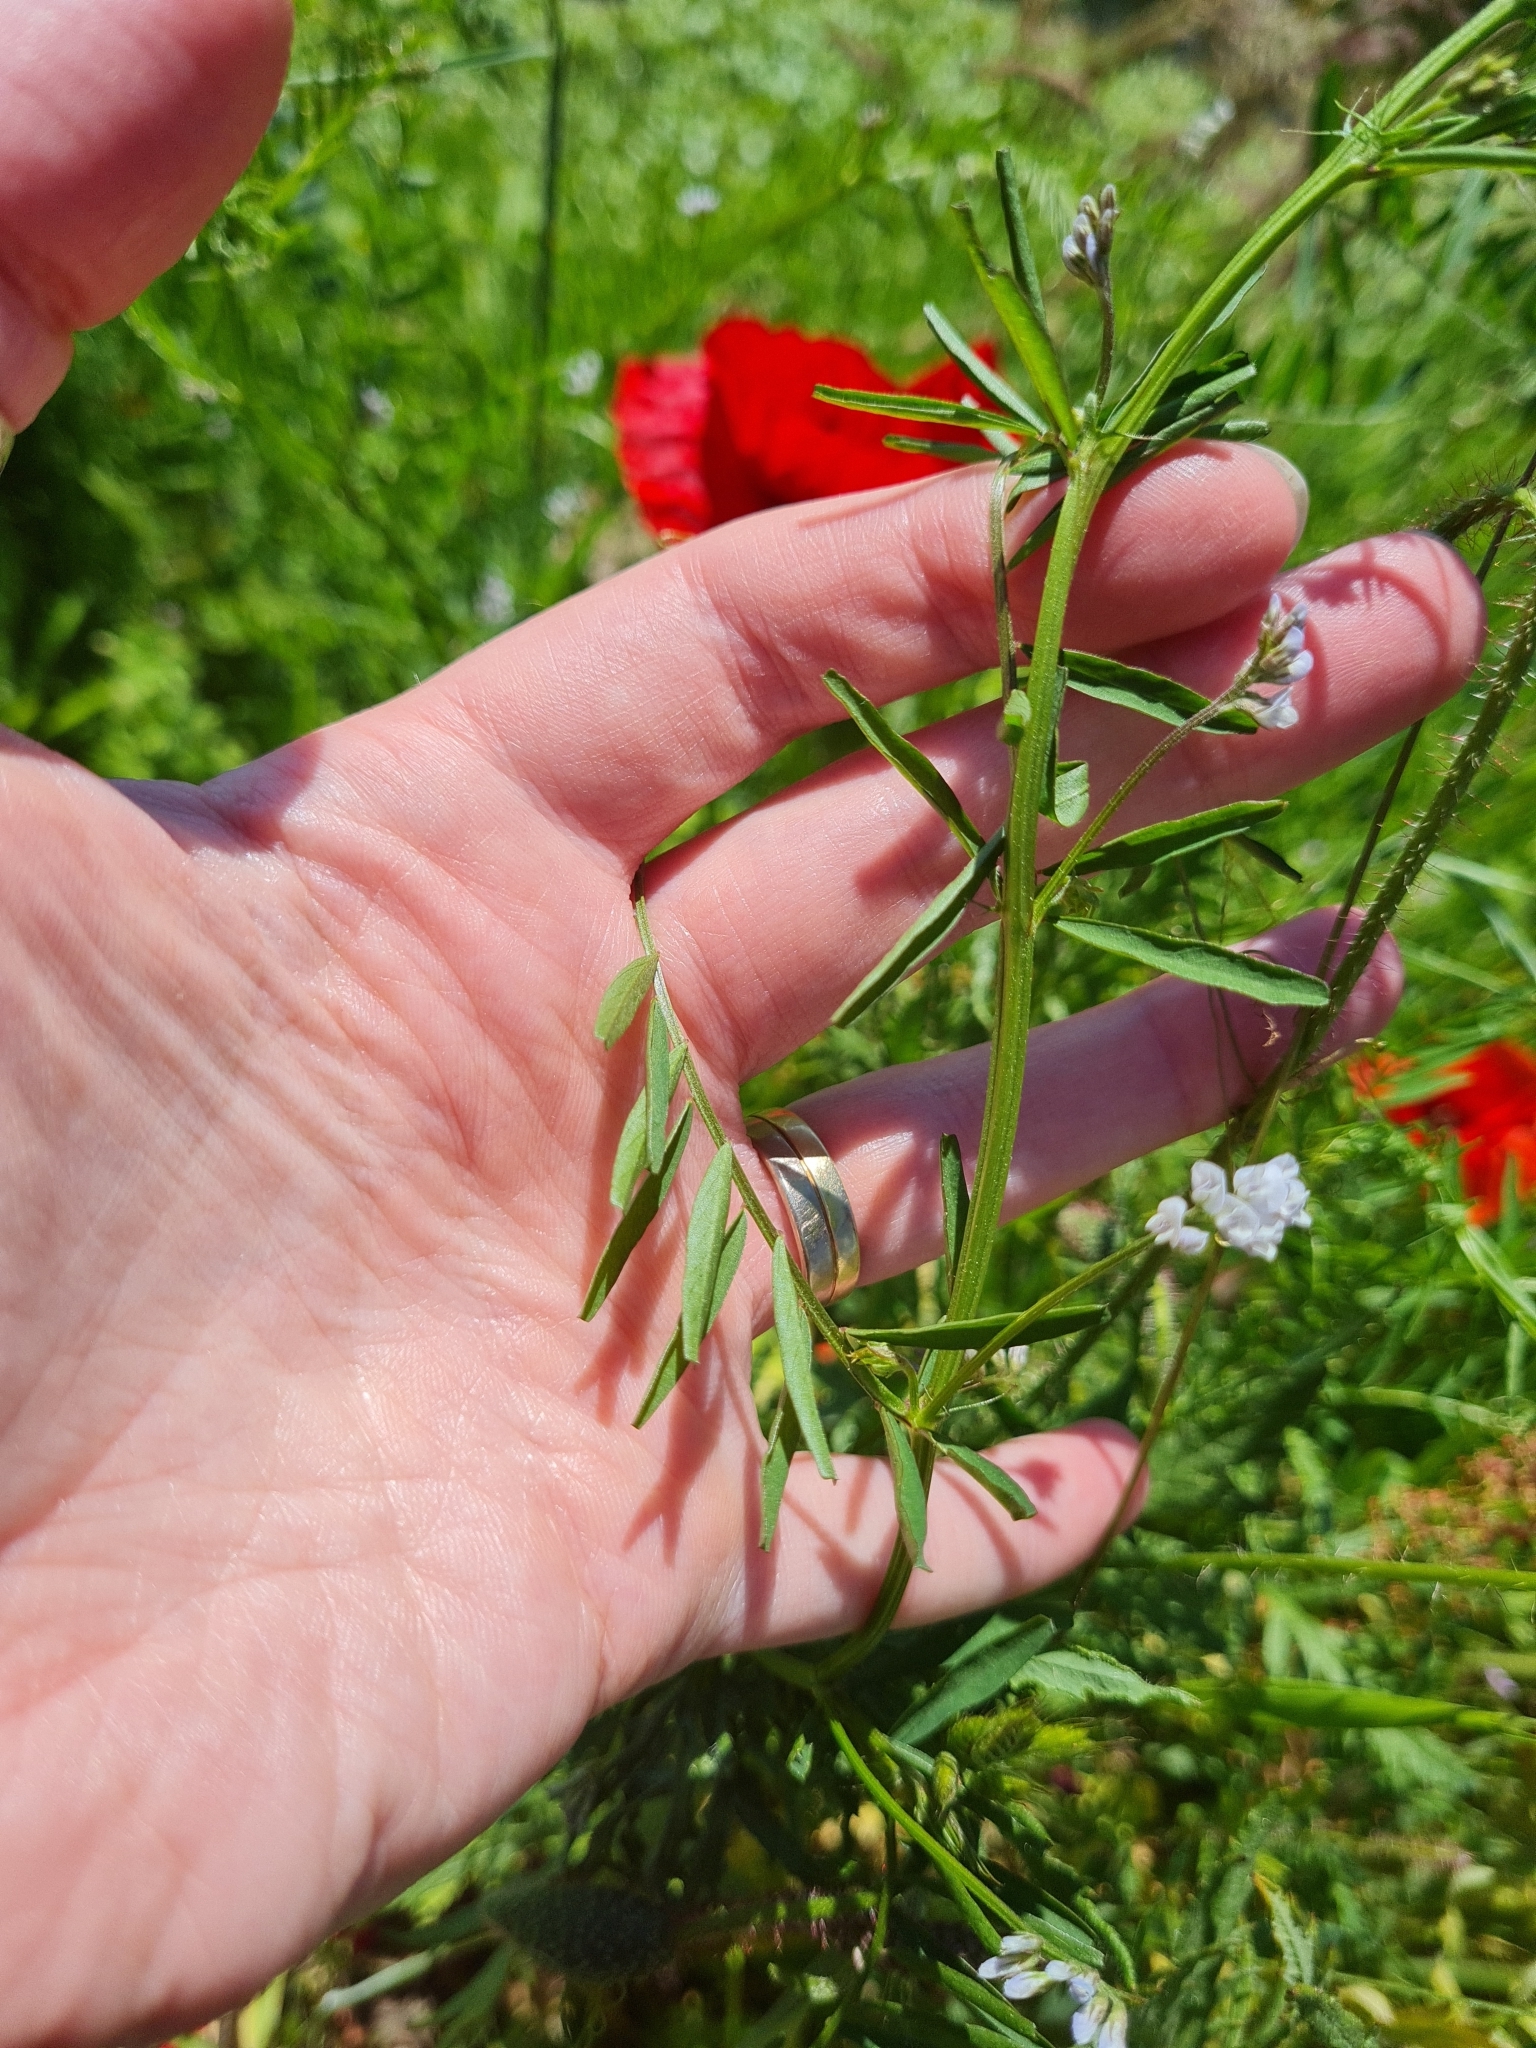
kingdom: Plantae
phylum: Tracheophyta
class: Magnoliopsida
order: Fabales
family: Fabaceae
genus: Vicia
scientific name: Vicia hirsuta
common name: Tiny vetch
